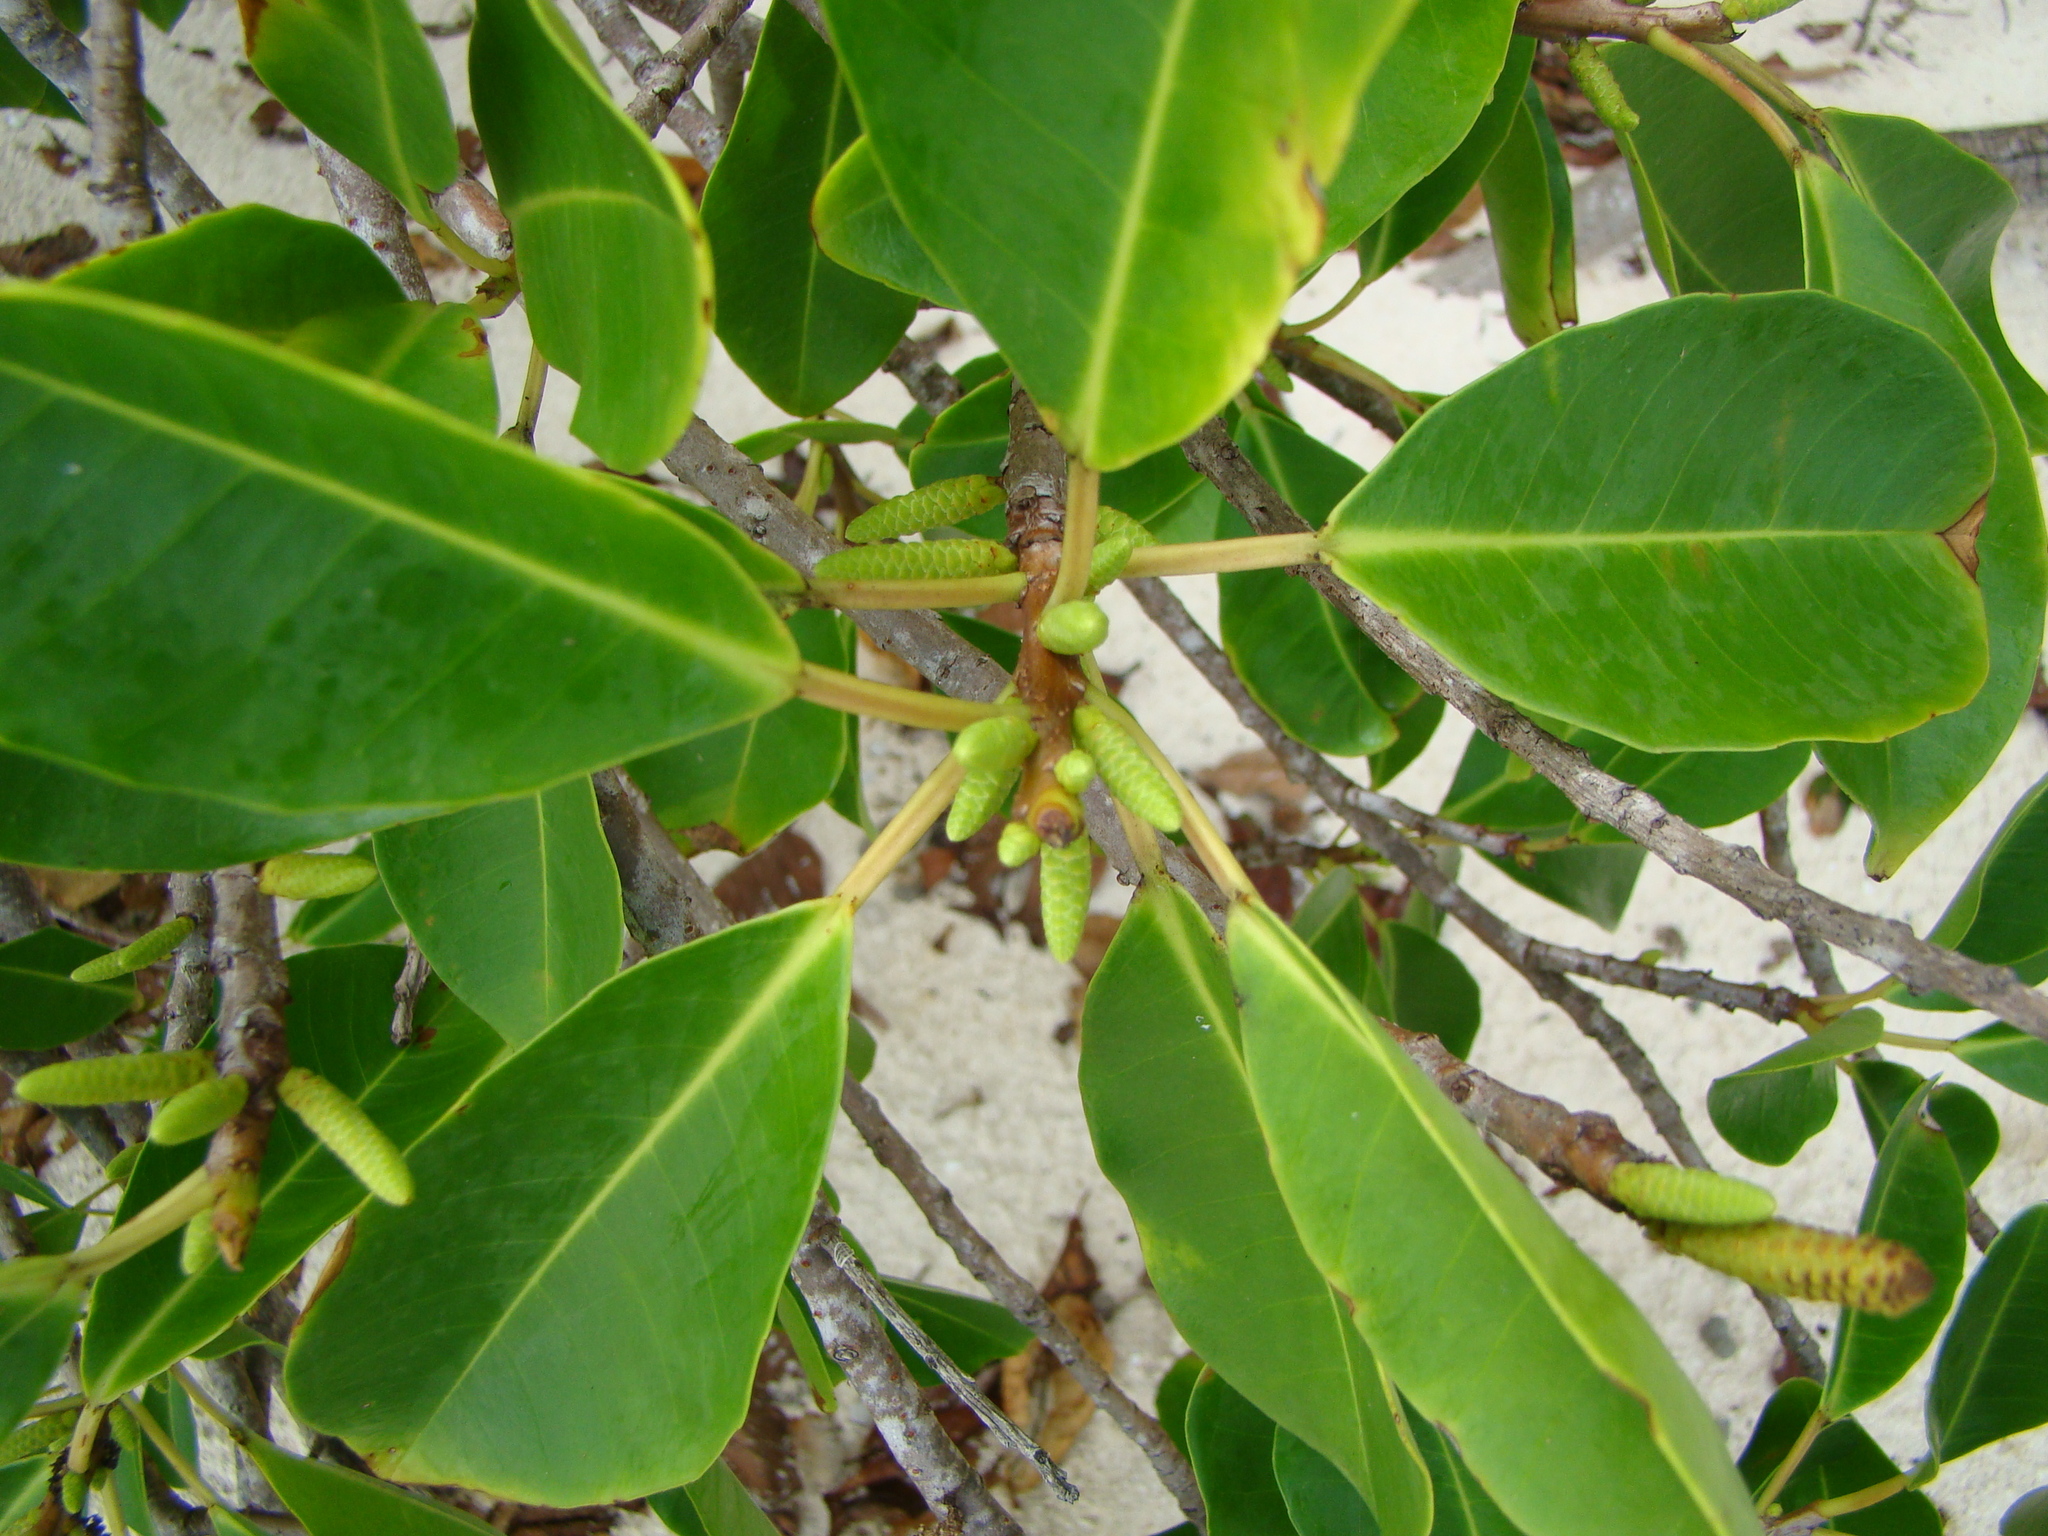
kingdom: Plantae
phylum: Tracheophyta
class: Magnoliopsida
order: Malpighiales
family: Euphorbiaceae
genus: Excoecaria
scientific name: Excoecaria agallocha
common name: River poisontree
